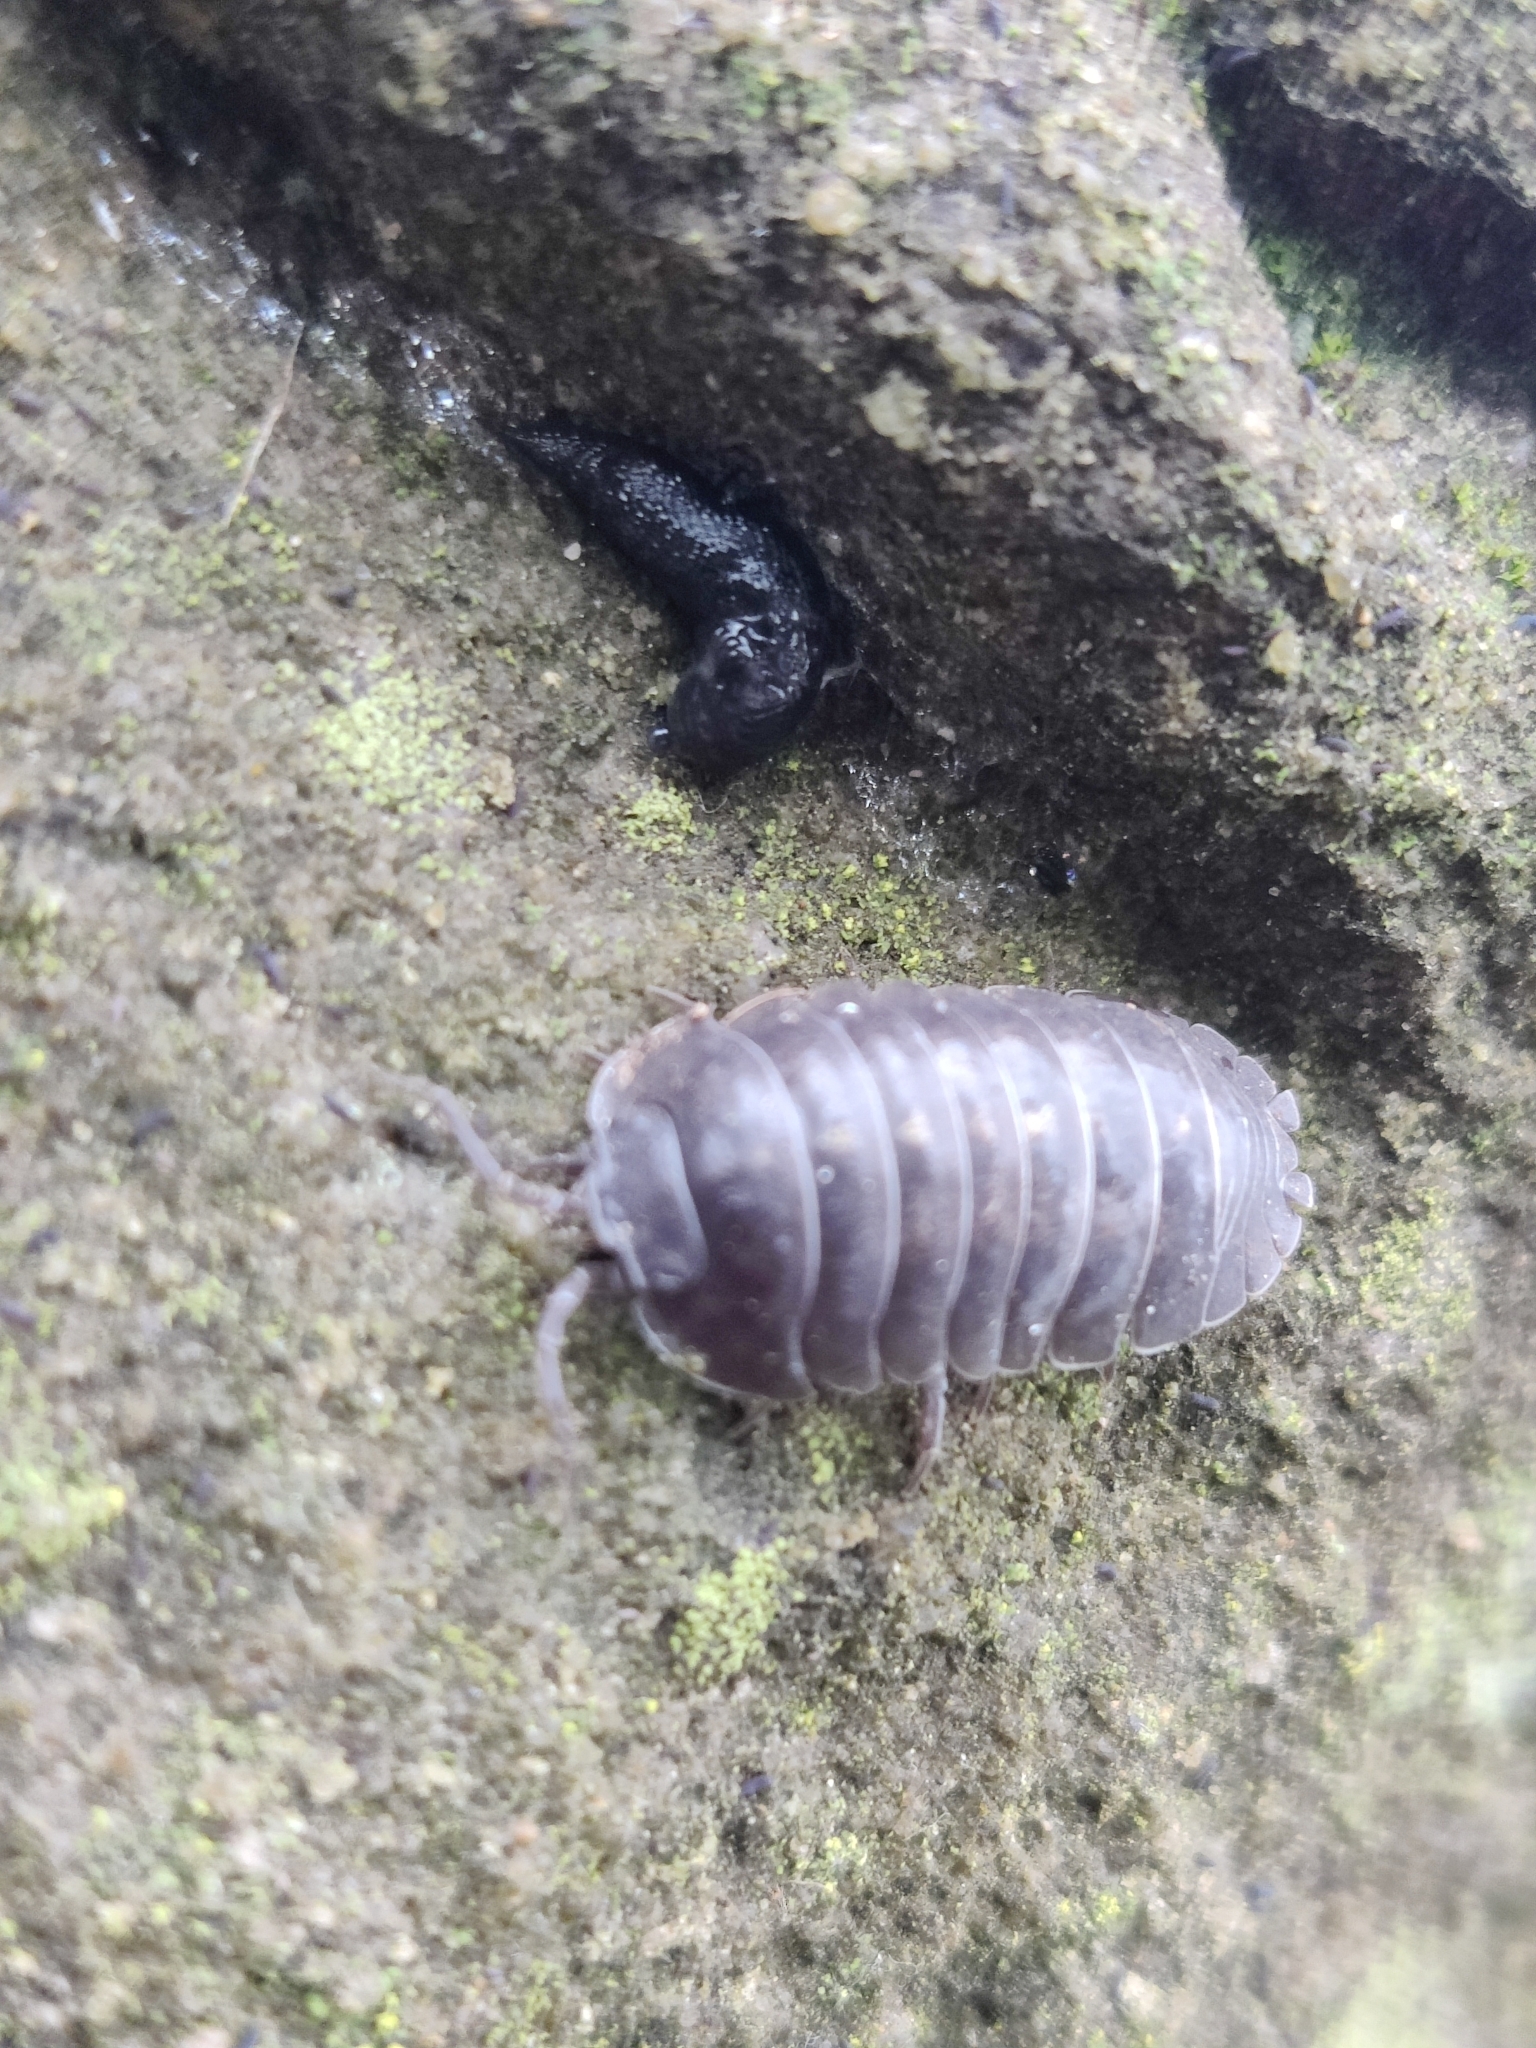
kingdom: Animalia
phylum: Arthropoda
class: Malacostraca
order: Isopoda
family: Armadillidiidae
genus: Armadillidium
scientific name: Armadillidium depressum
